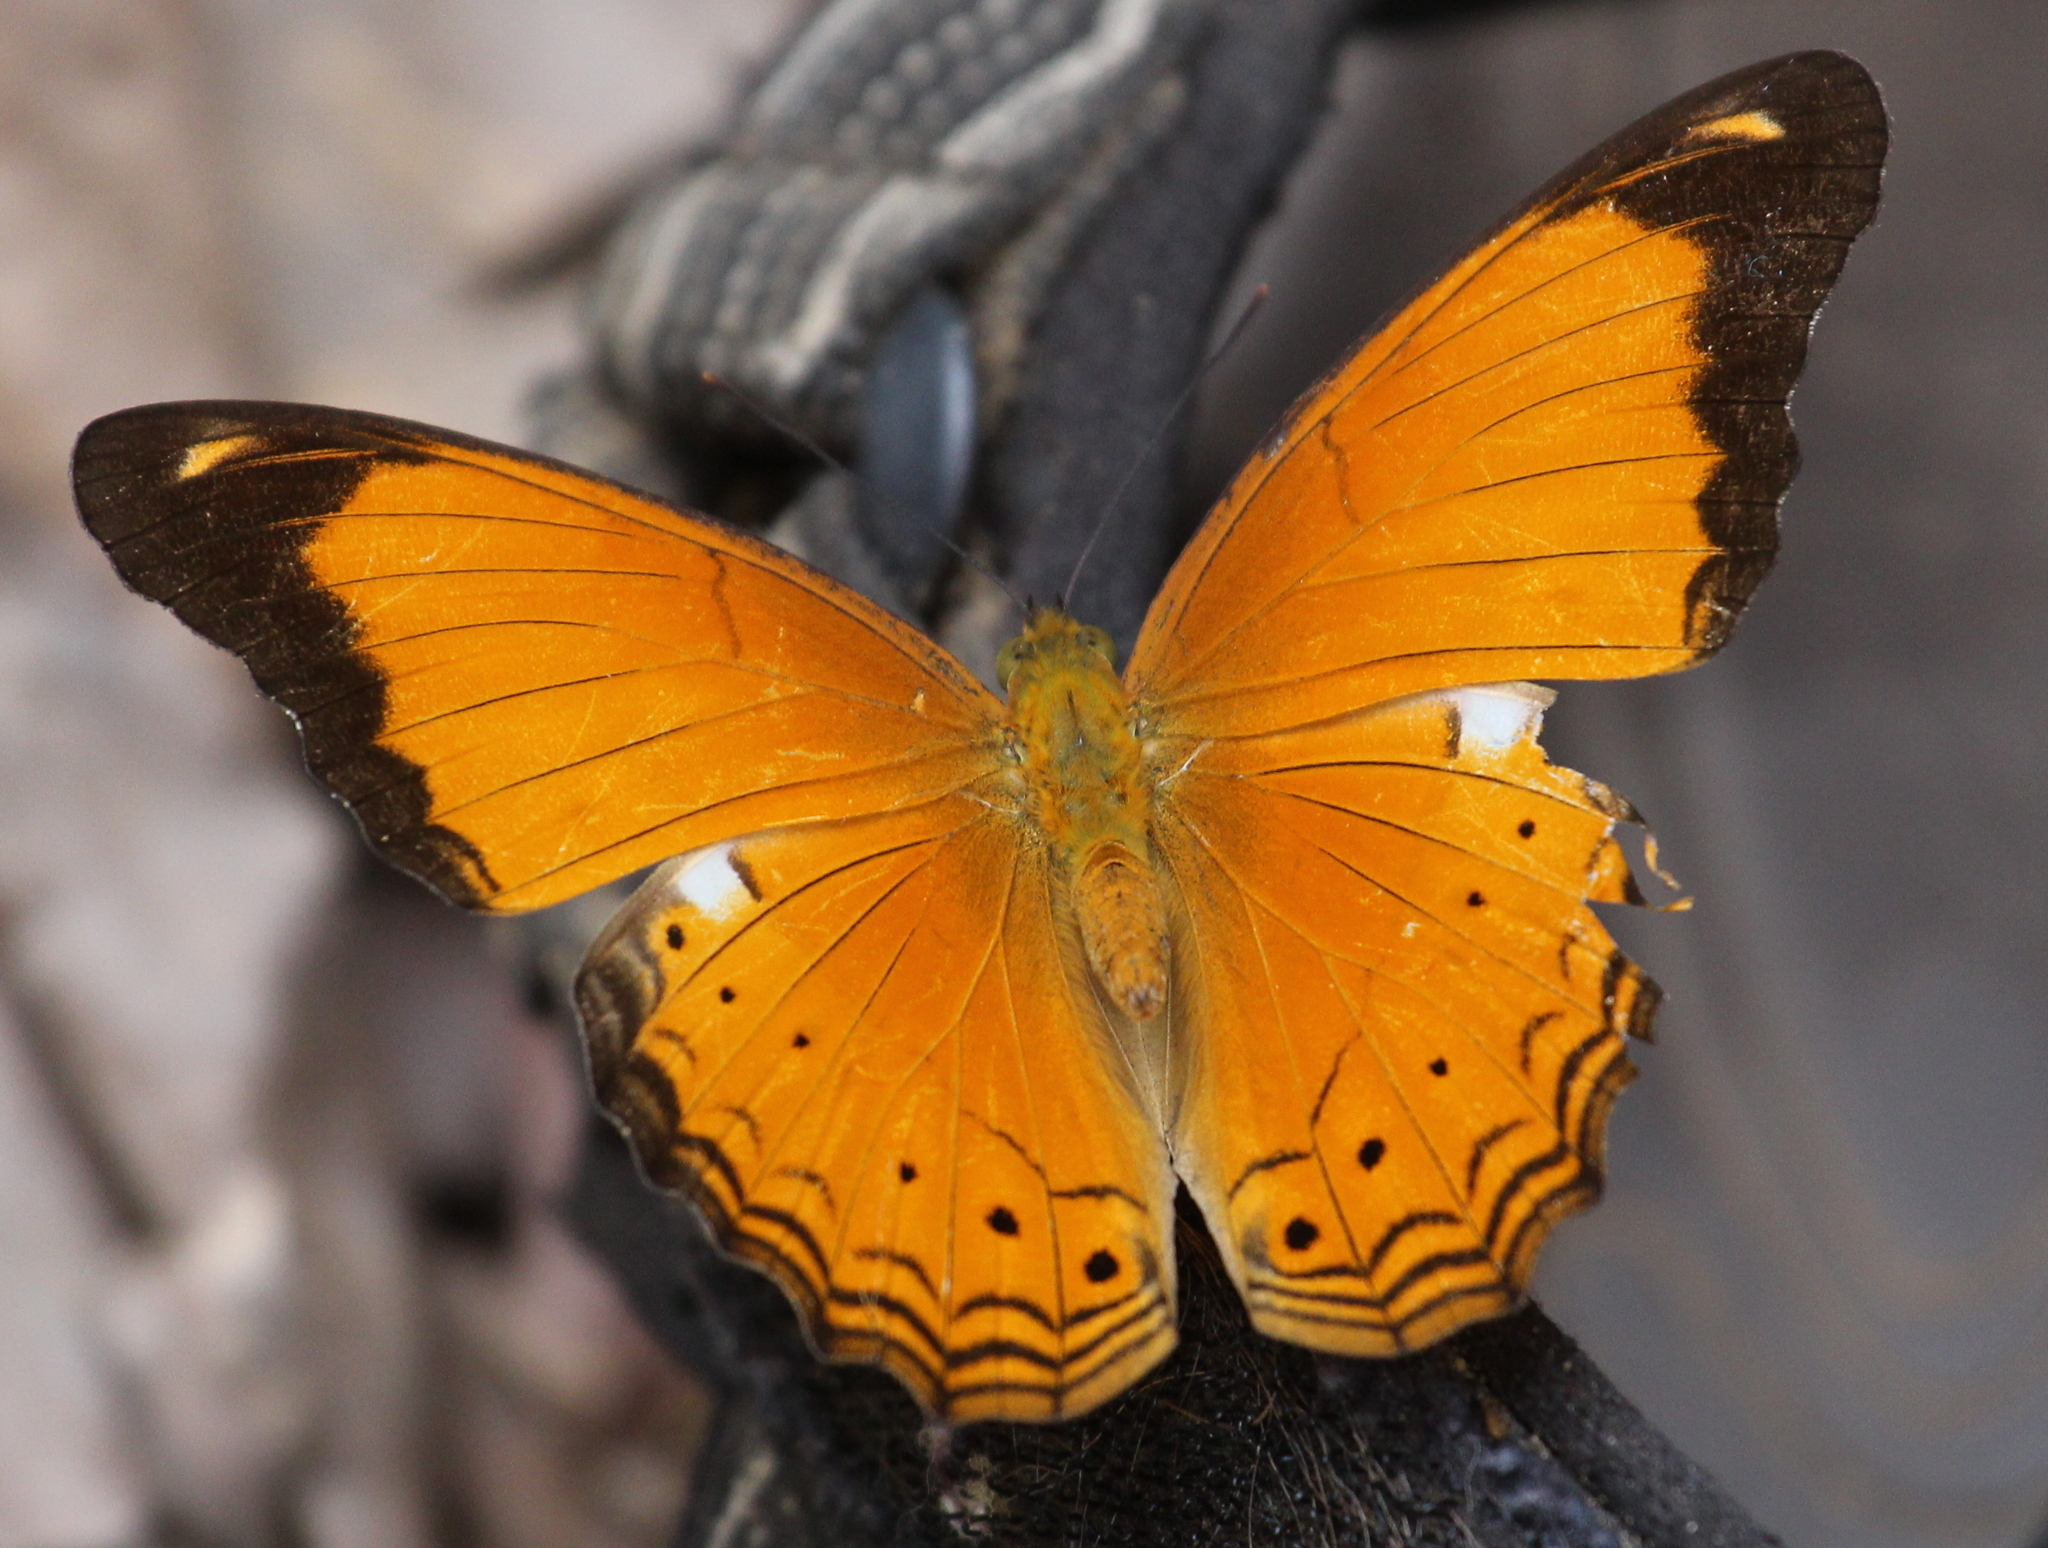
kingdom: Animalia
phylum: Arthropoda
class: Insecta
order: Lepidoptera
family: Nymphalidae
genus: Cirrochroa
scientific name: Cirrochroa emalea
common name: Malay yeoman
